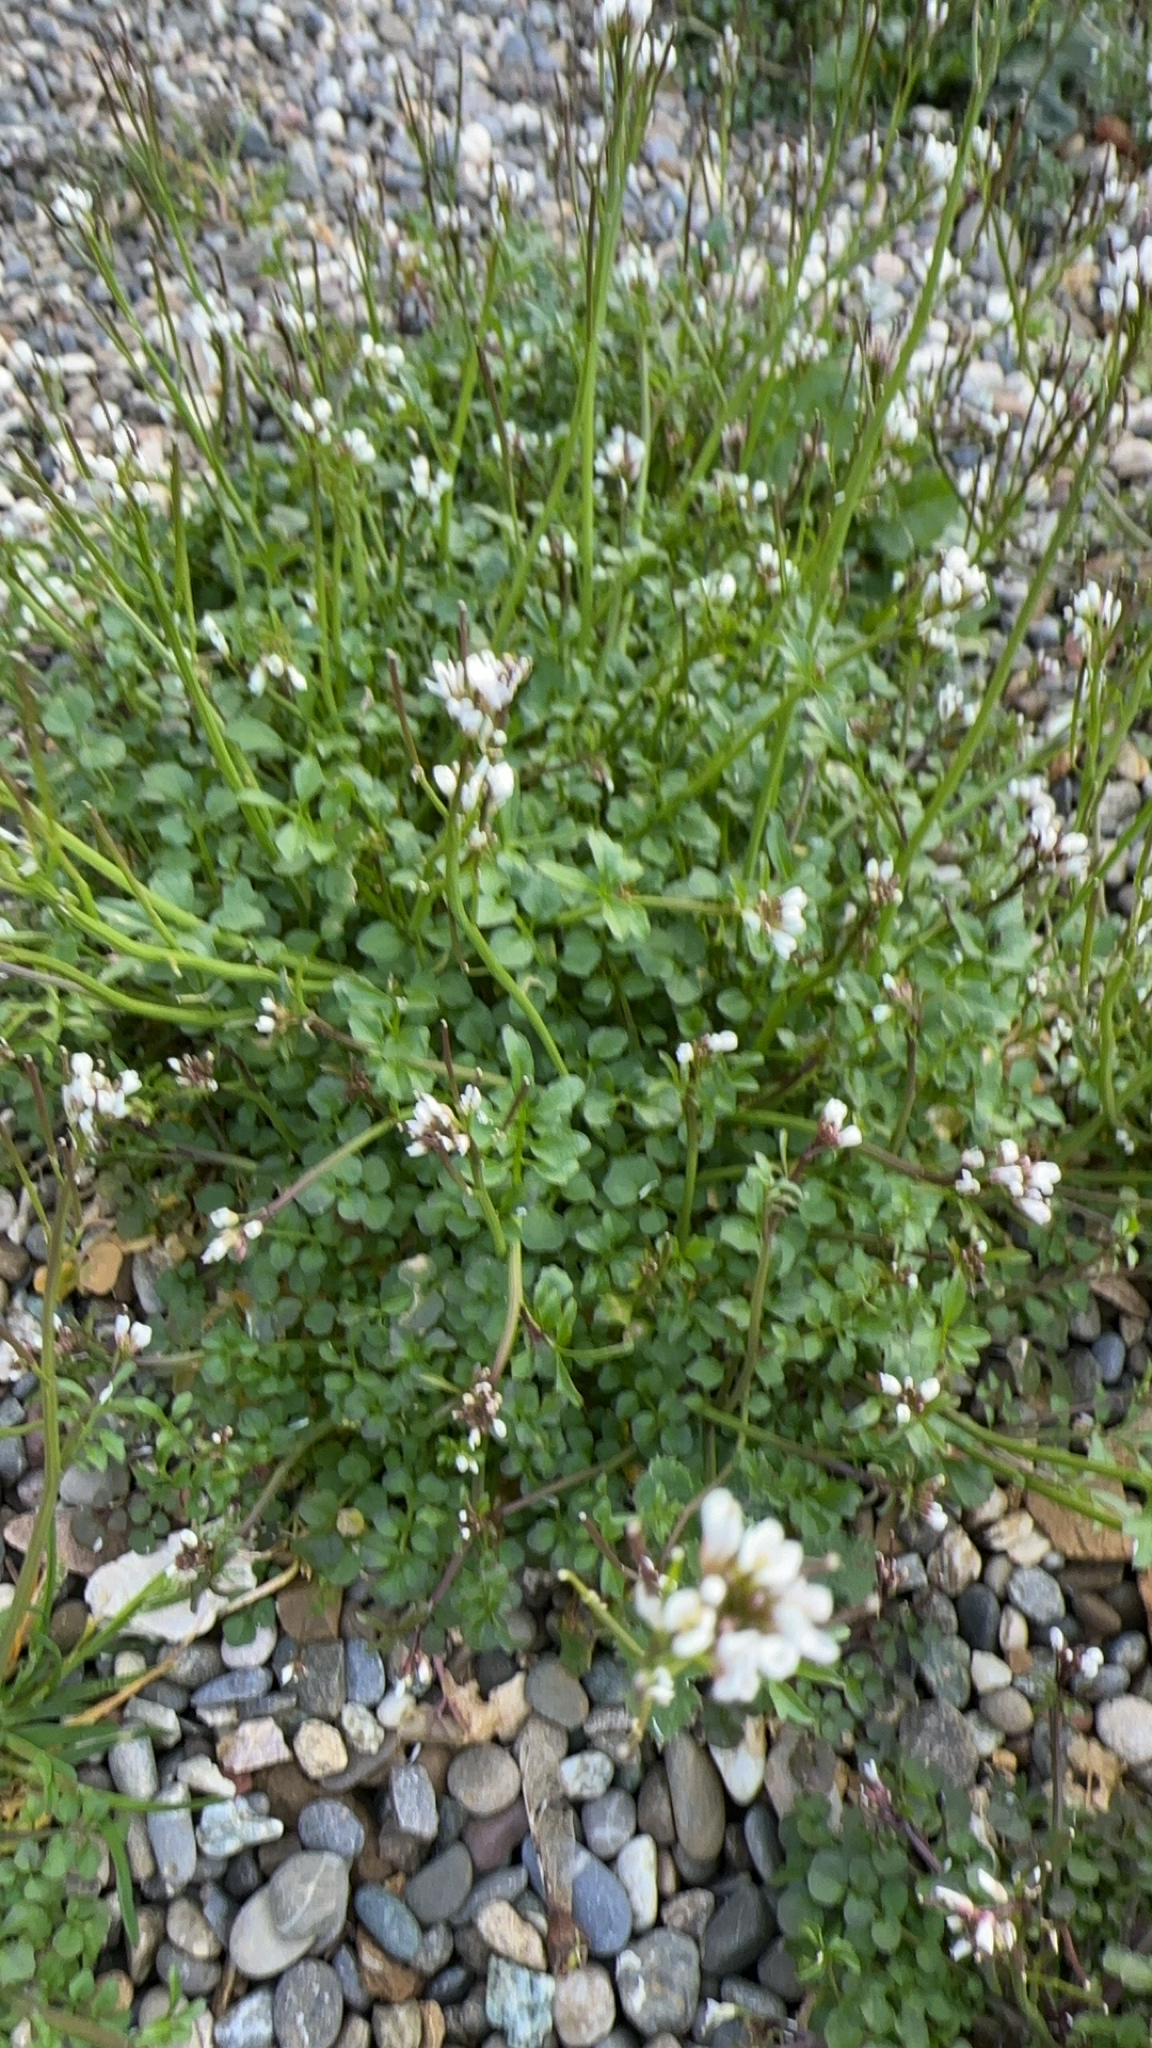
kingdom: Plantae
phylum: Tracheophyta
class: Magnoliopsida
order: Brassicales
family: Brassicaceae
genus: Cardamine
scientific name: Cardamine hirsuta
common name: Hairy bittercress
